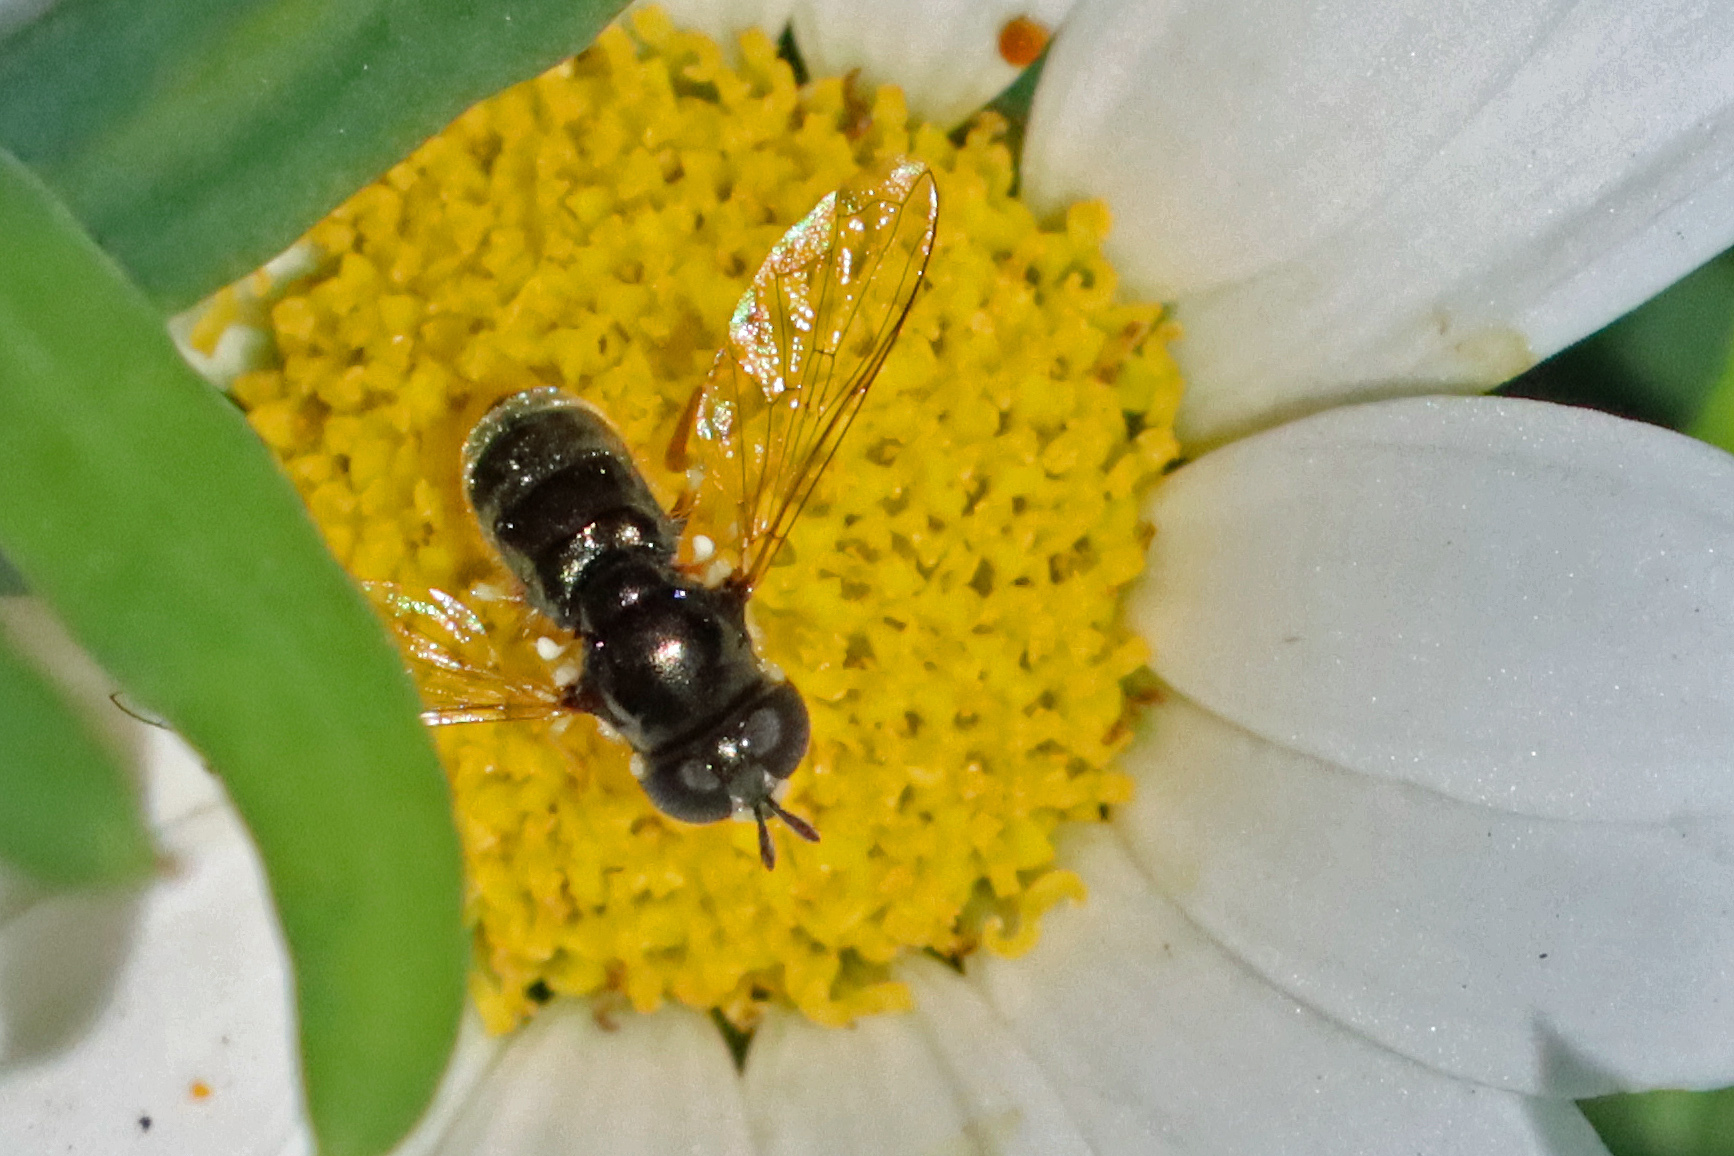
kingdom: Animalia
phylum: Arthropoda
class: Insecta
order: Diptera
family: Syrphidae
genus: Paragus
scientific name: Paragus tibialis
